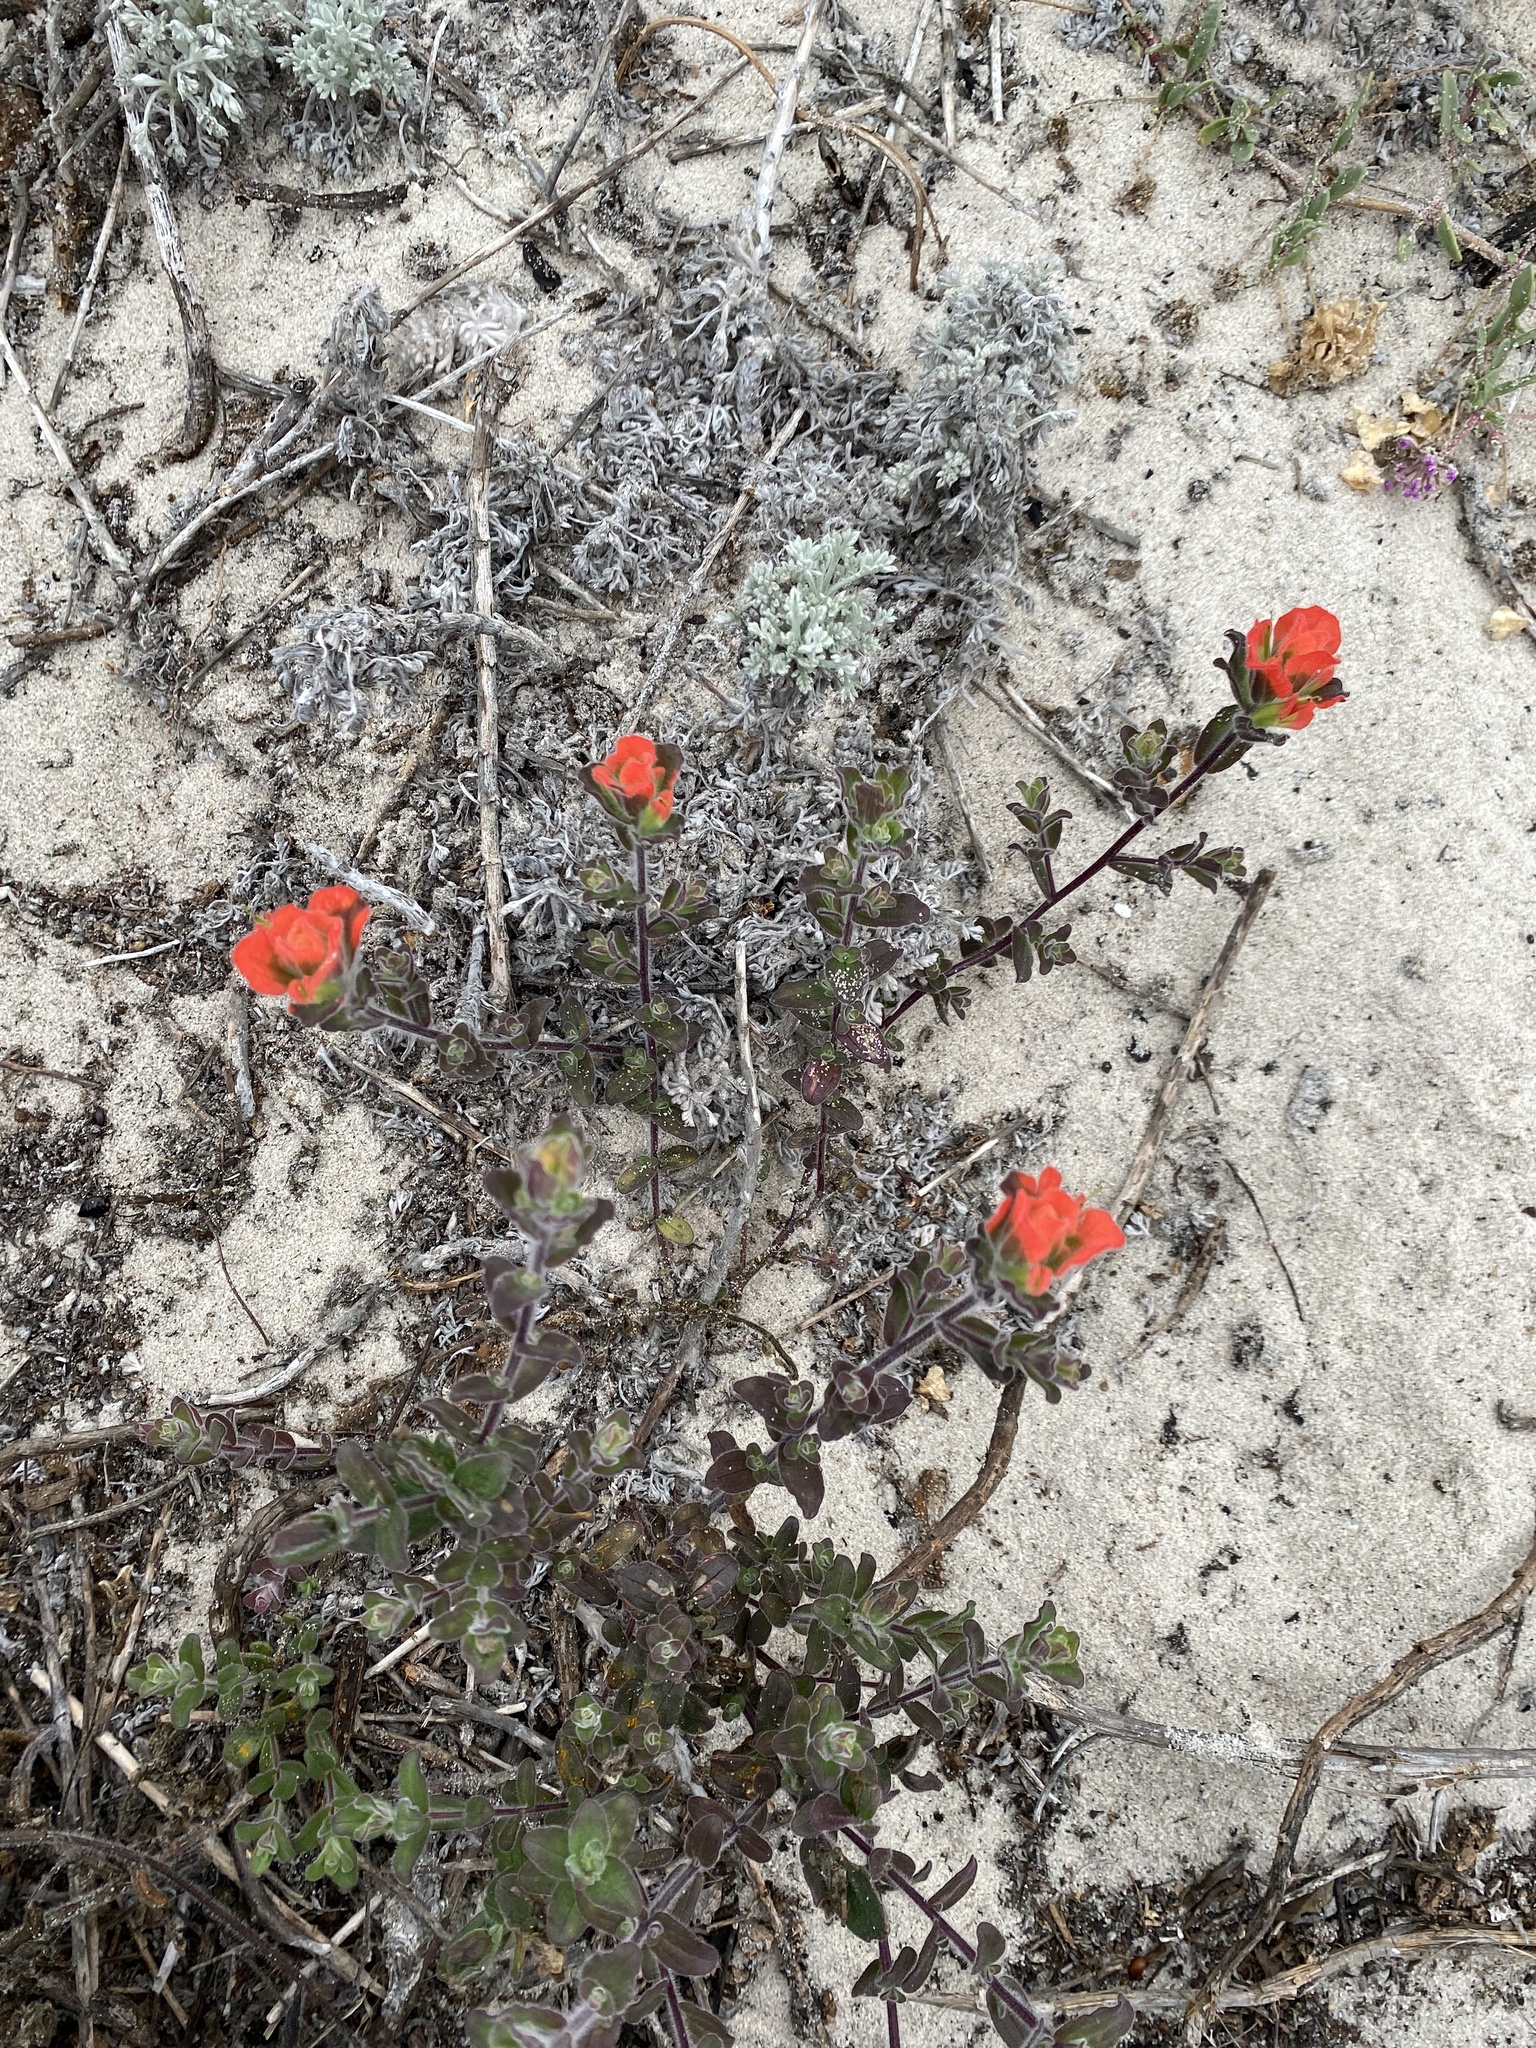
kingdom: Plantae
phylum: Tracheophyta
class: Magnoliopsida
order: Lamiales
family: Orobanchaceae
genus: Castilleja
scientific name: Castilleja latifolia
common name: Monterey indian paintbrush
